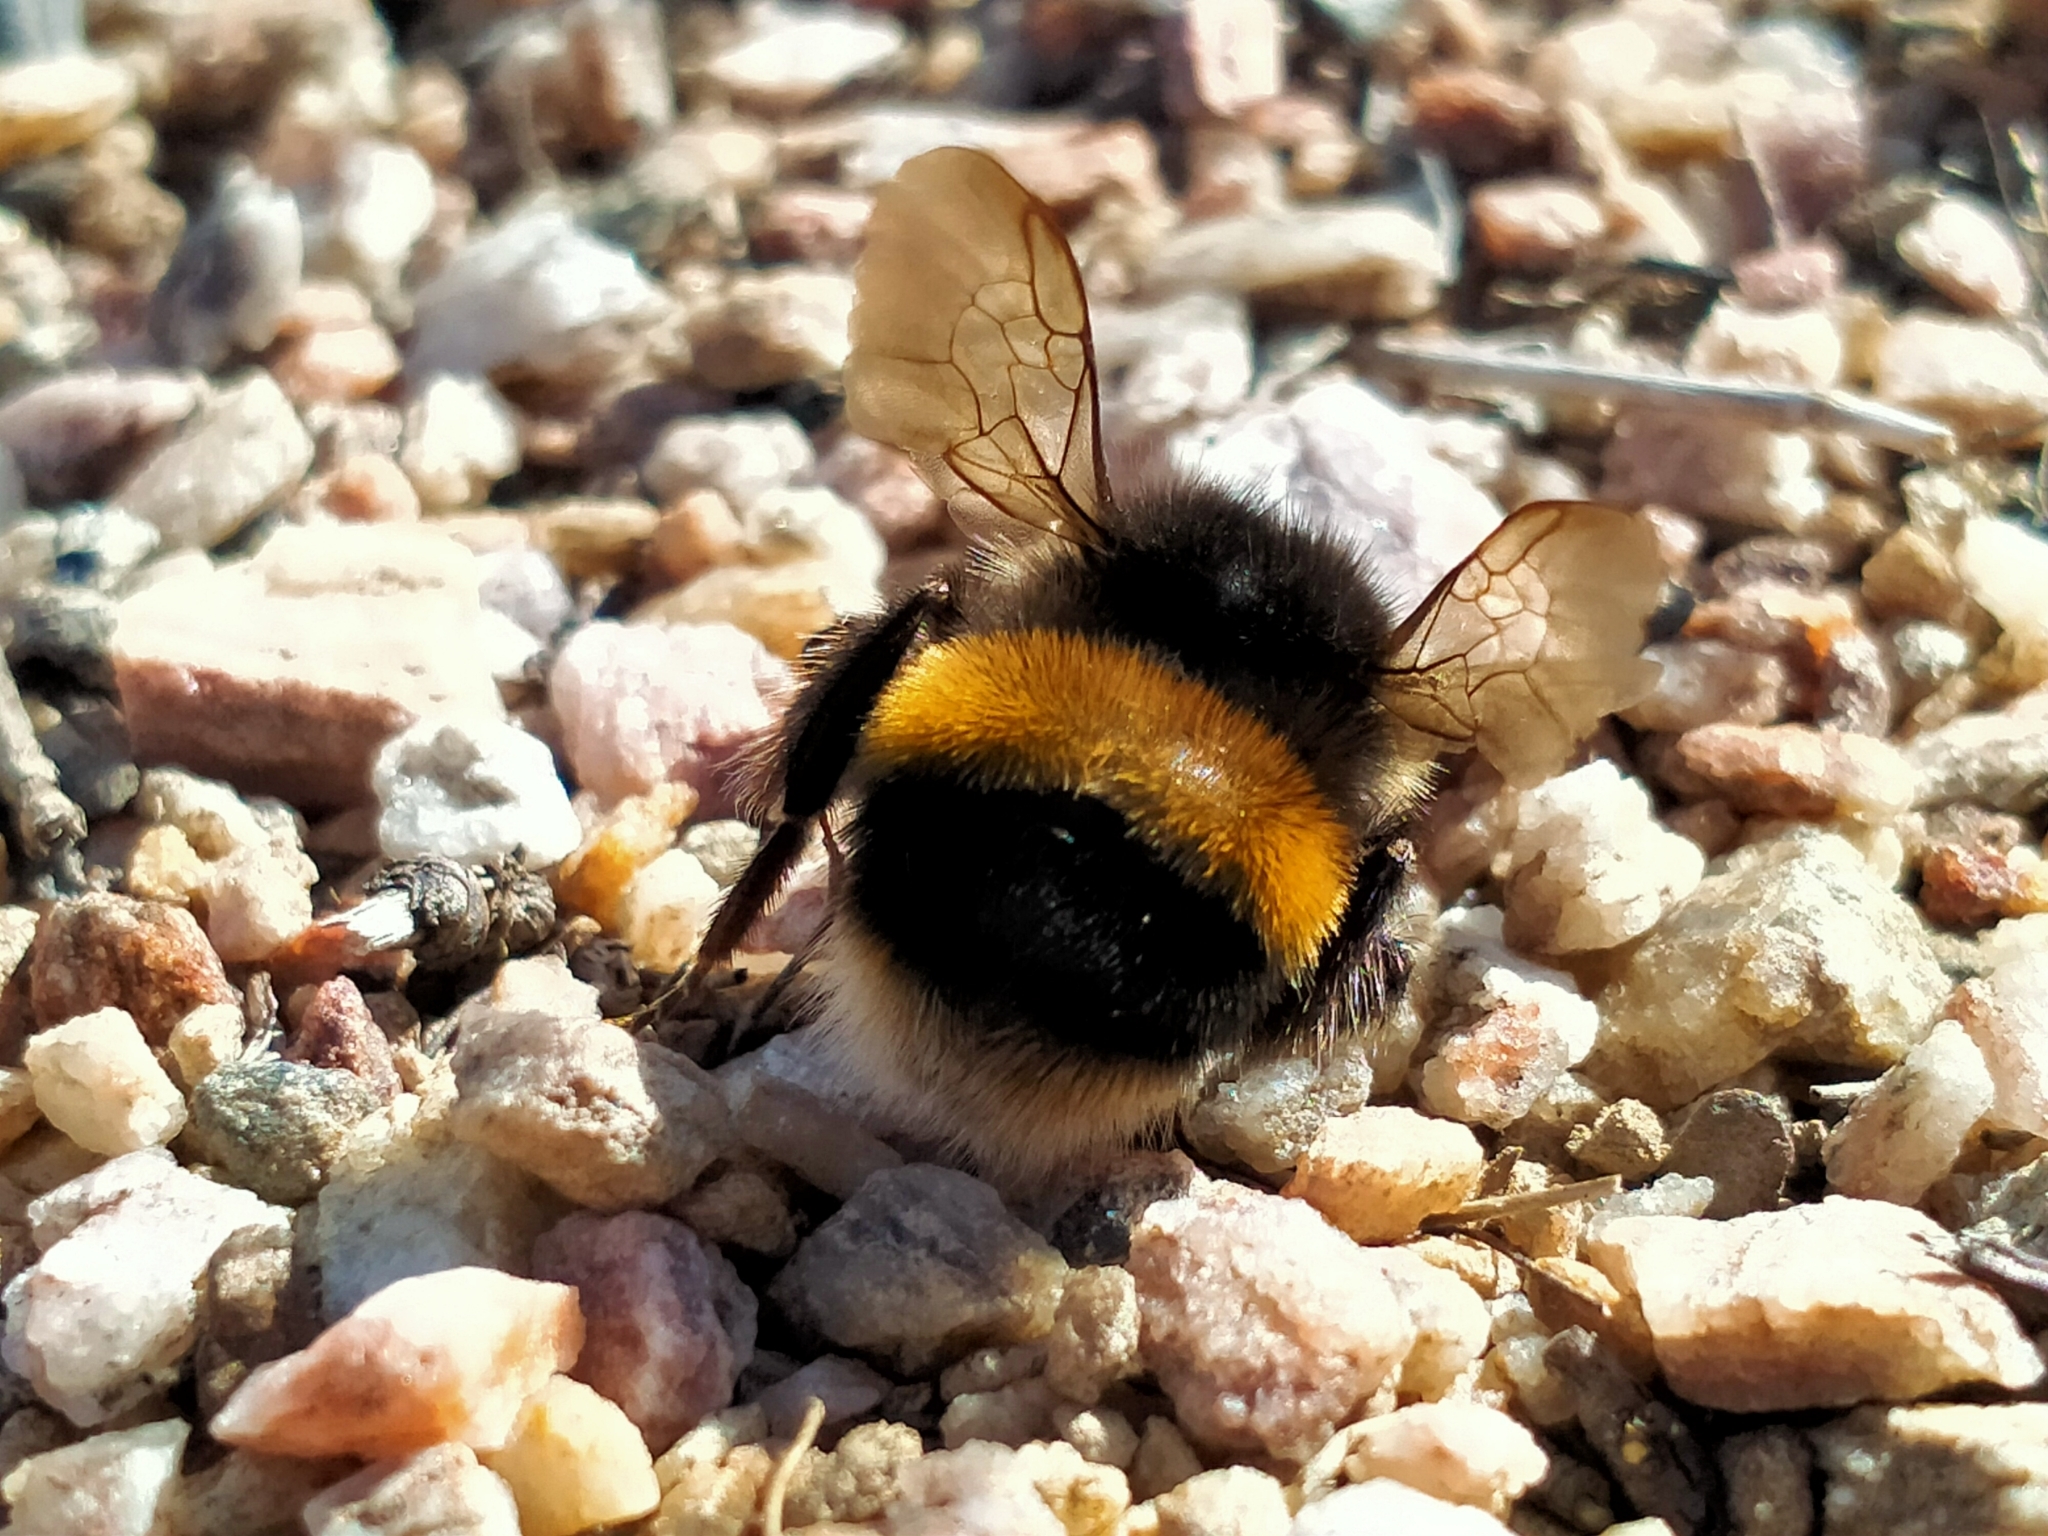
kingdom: Animalia
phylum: Arthropoda
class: Insecta
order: Hymenoptera
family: Apidae
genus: Bombus
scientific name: Bombus terrestris
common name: Buff-tailed bumblebee
